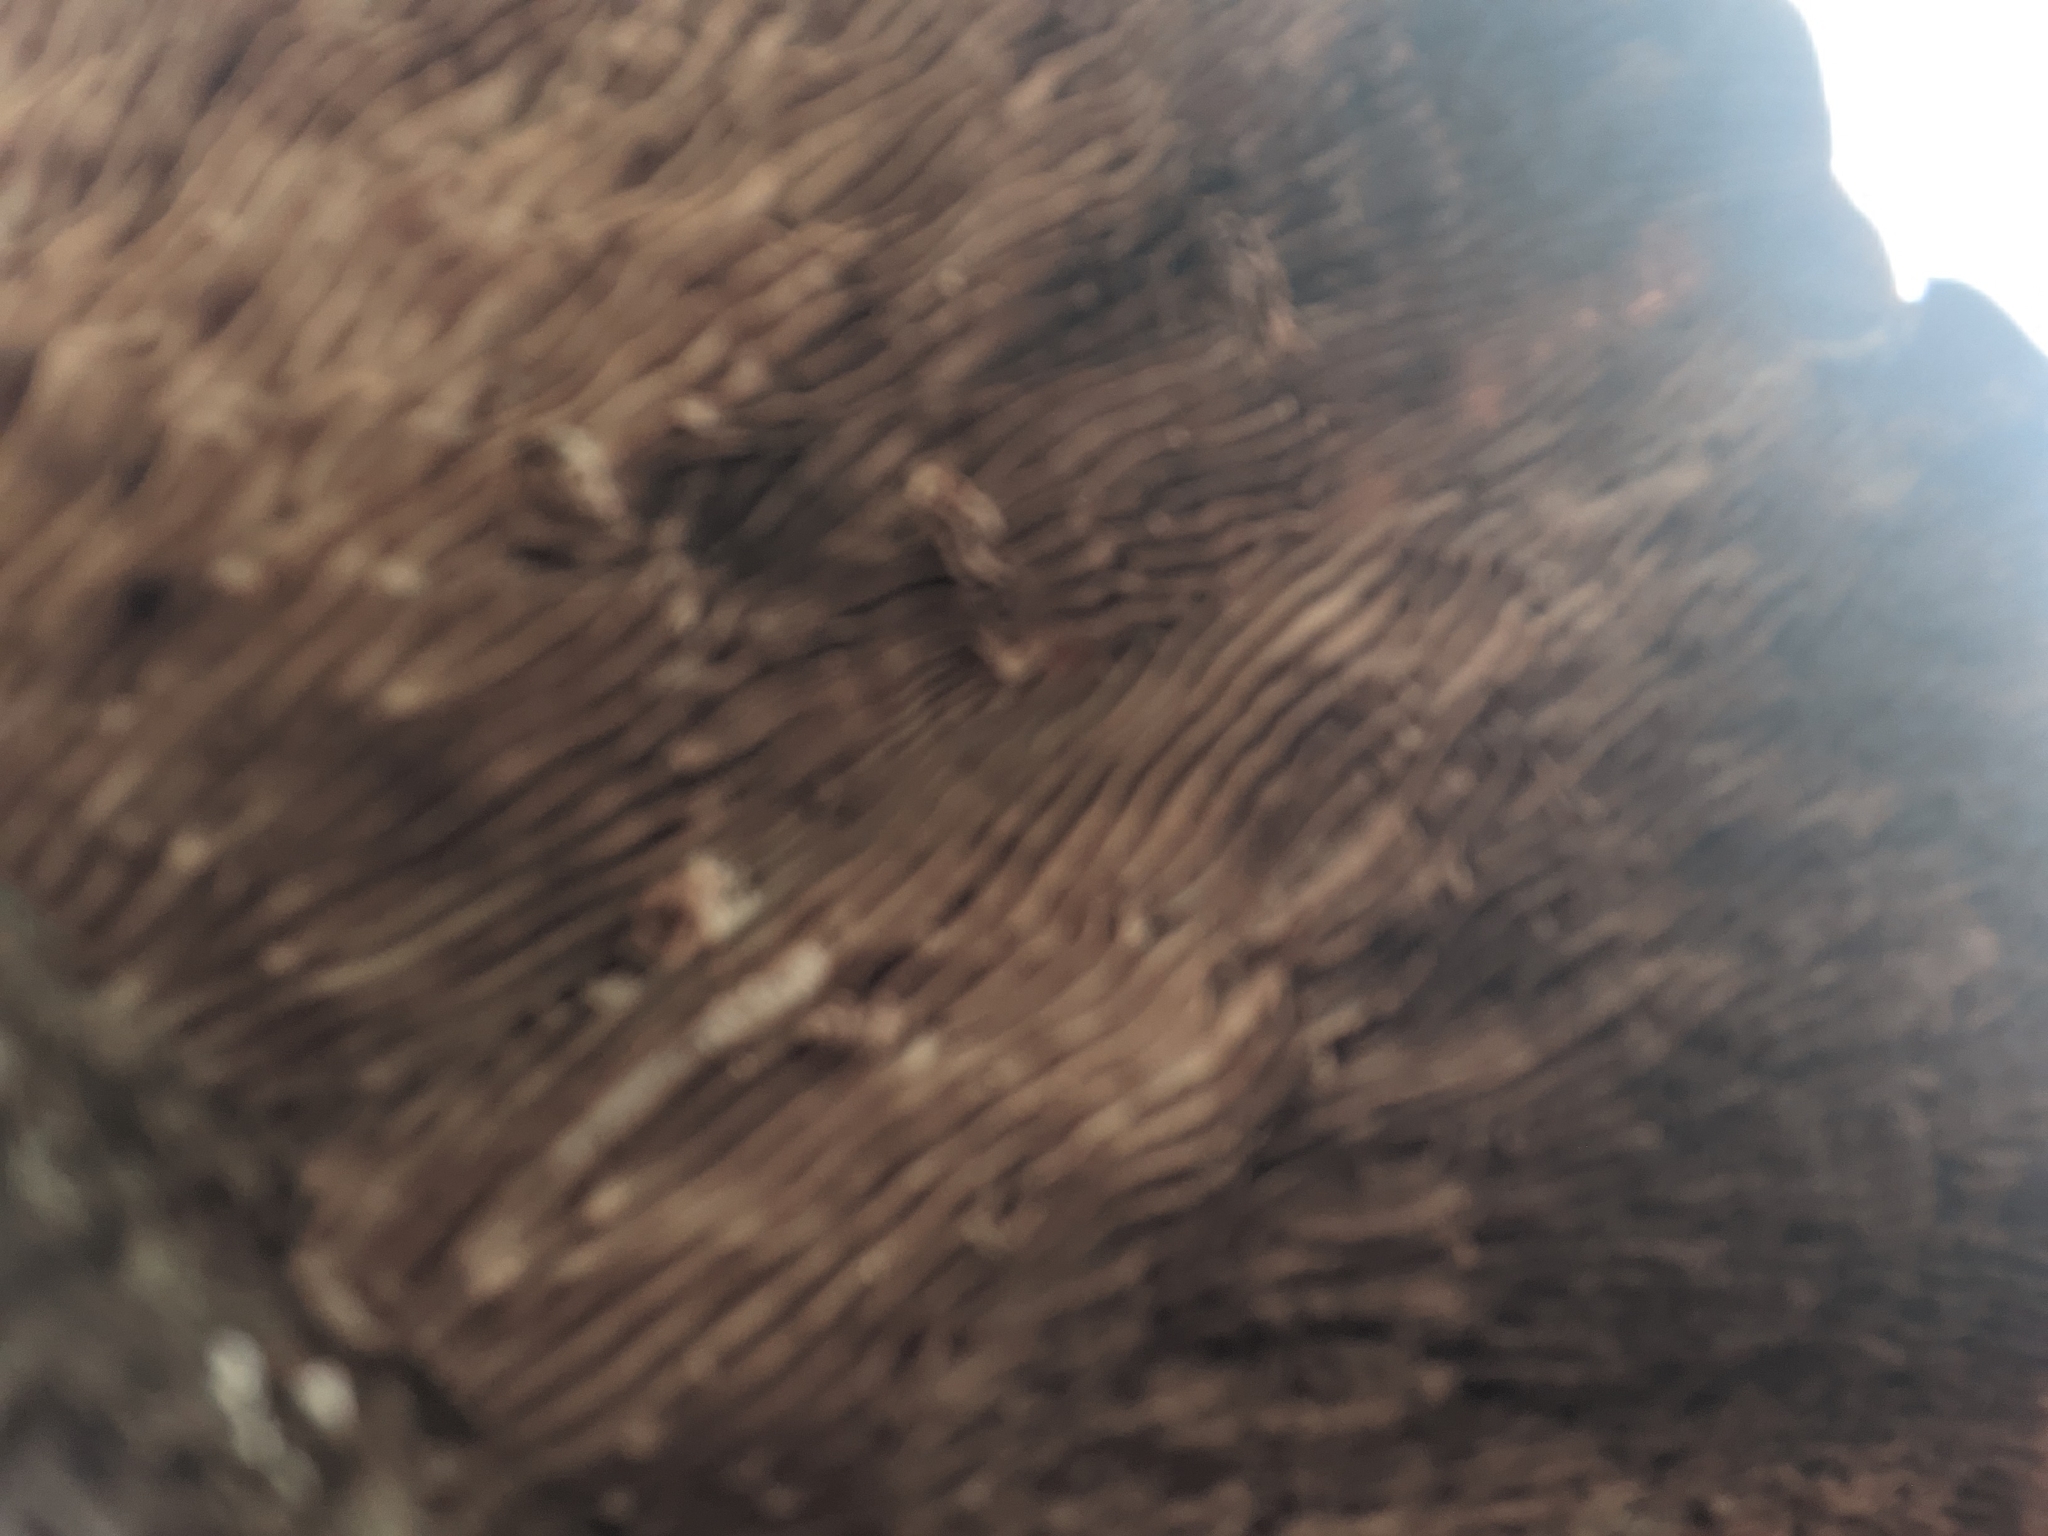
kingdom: Fungi
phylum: Basidiomycota
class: Agaricomycetes
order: Polyporales
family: Polyporaceae
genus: Lenzites
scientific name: Lenzites betulinus
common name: Birch mazegill
